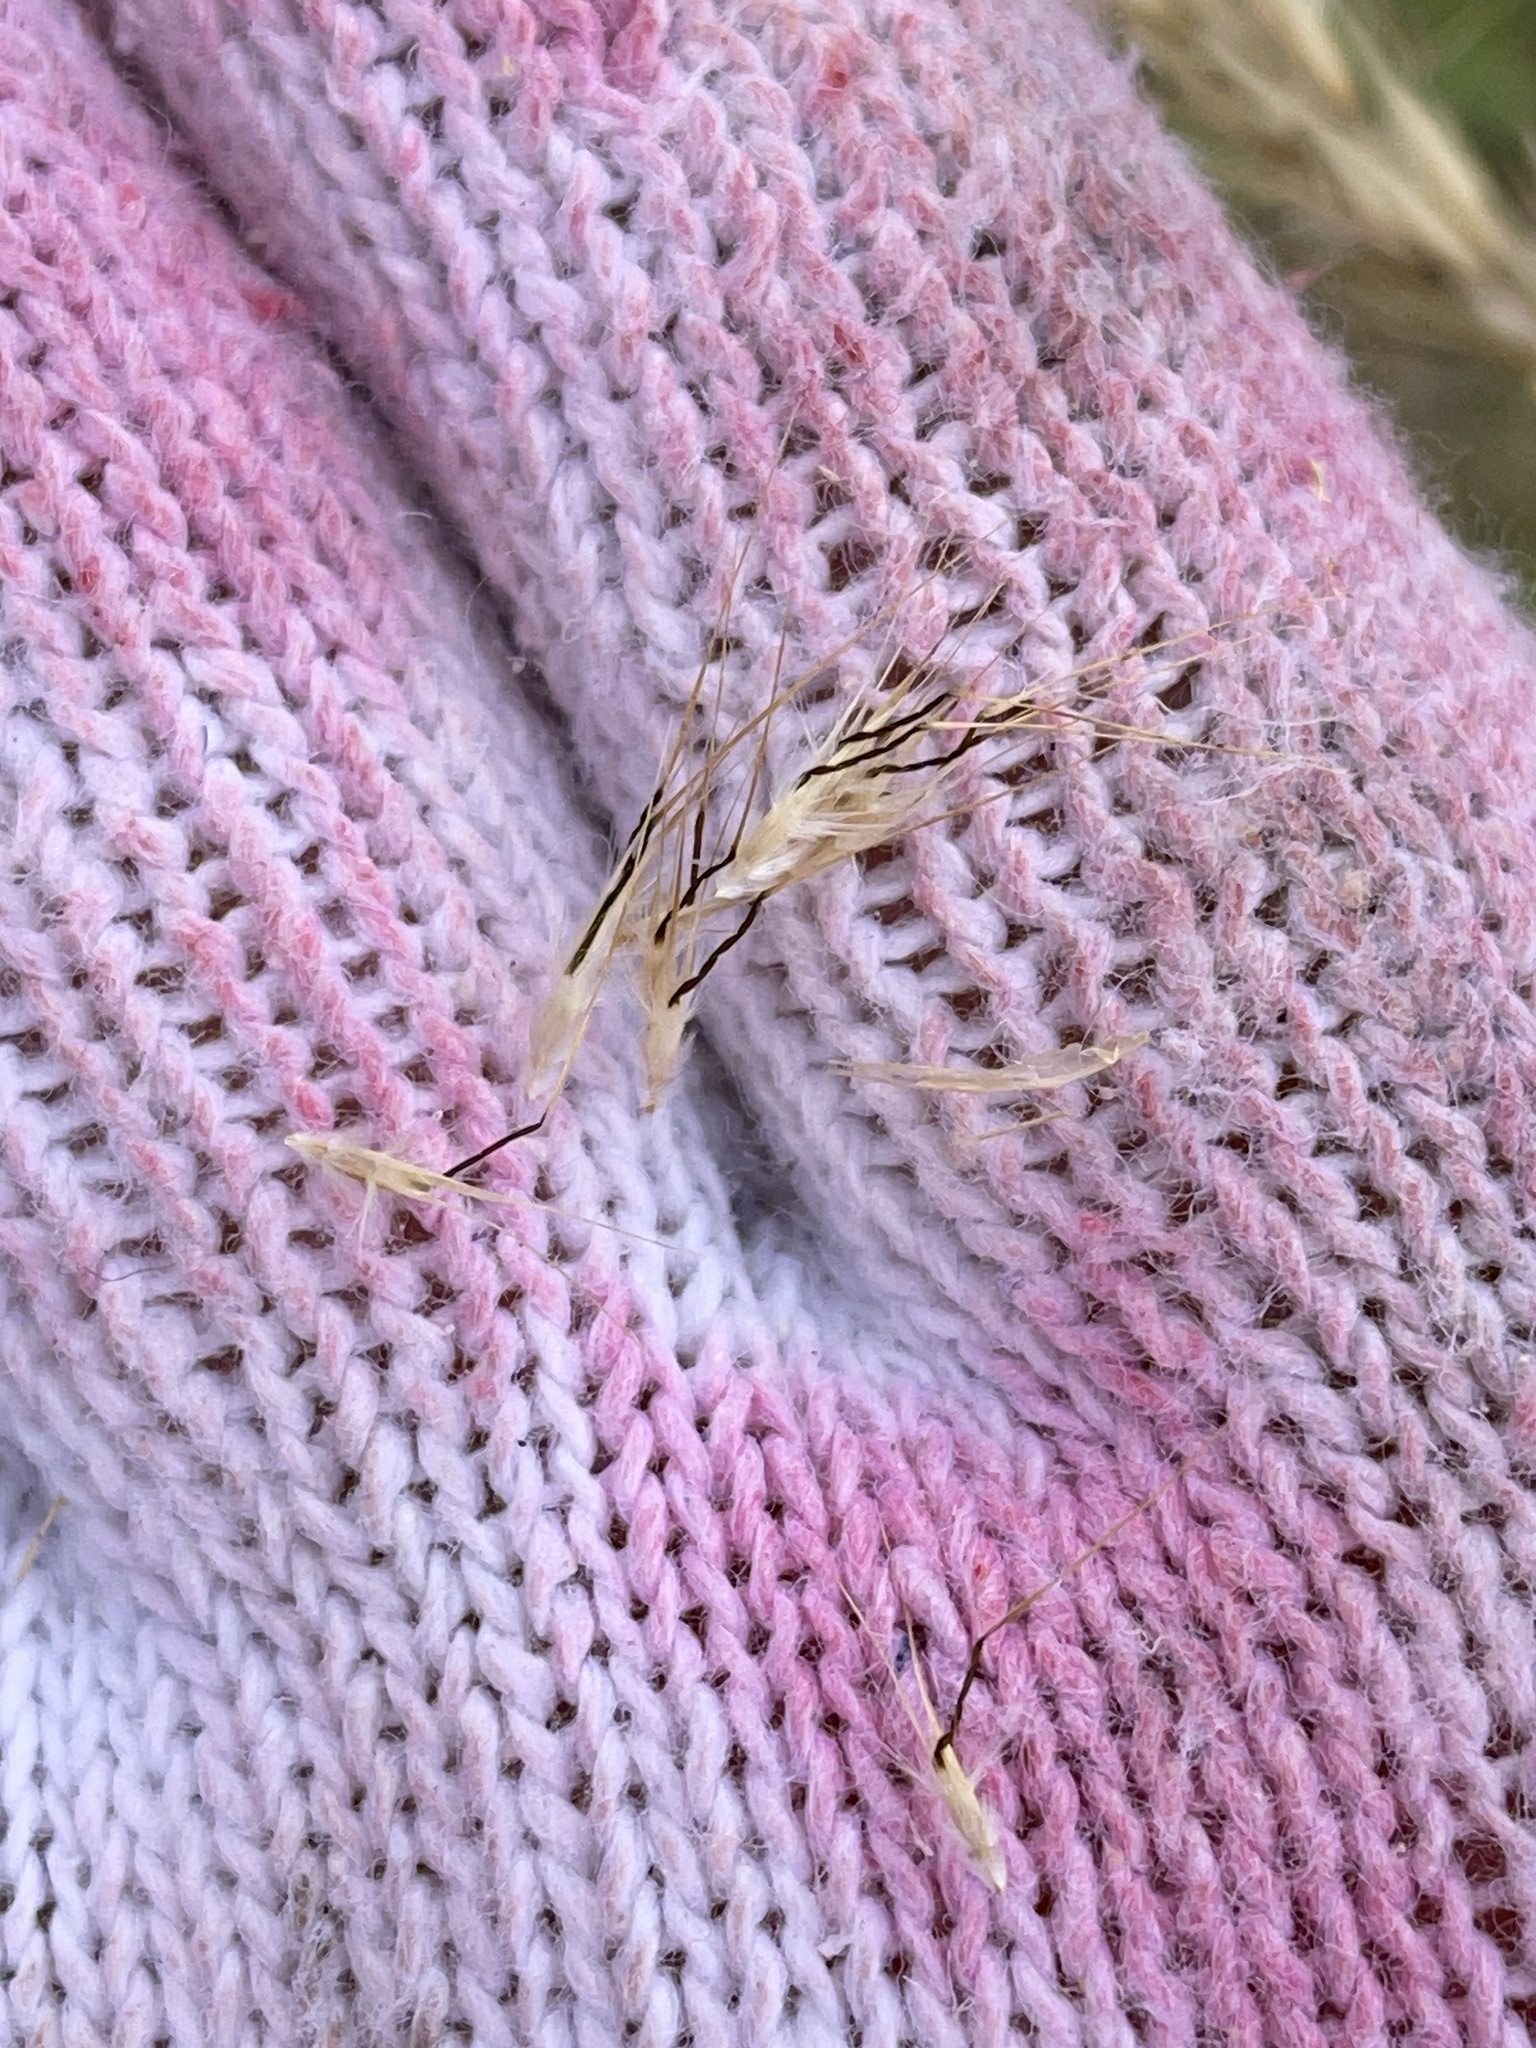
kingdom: Plantae
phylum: Tracheophyta
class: Liliopsida
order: Poales
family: Poaceae
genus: Rytidosperma
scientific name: Rytidosperma setaceum
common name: Small-flower wallaby grass
